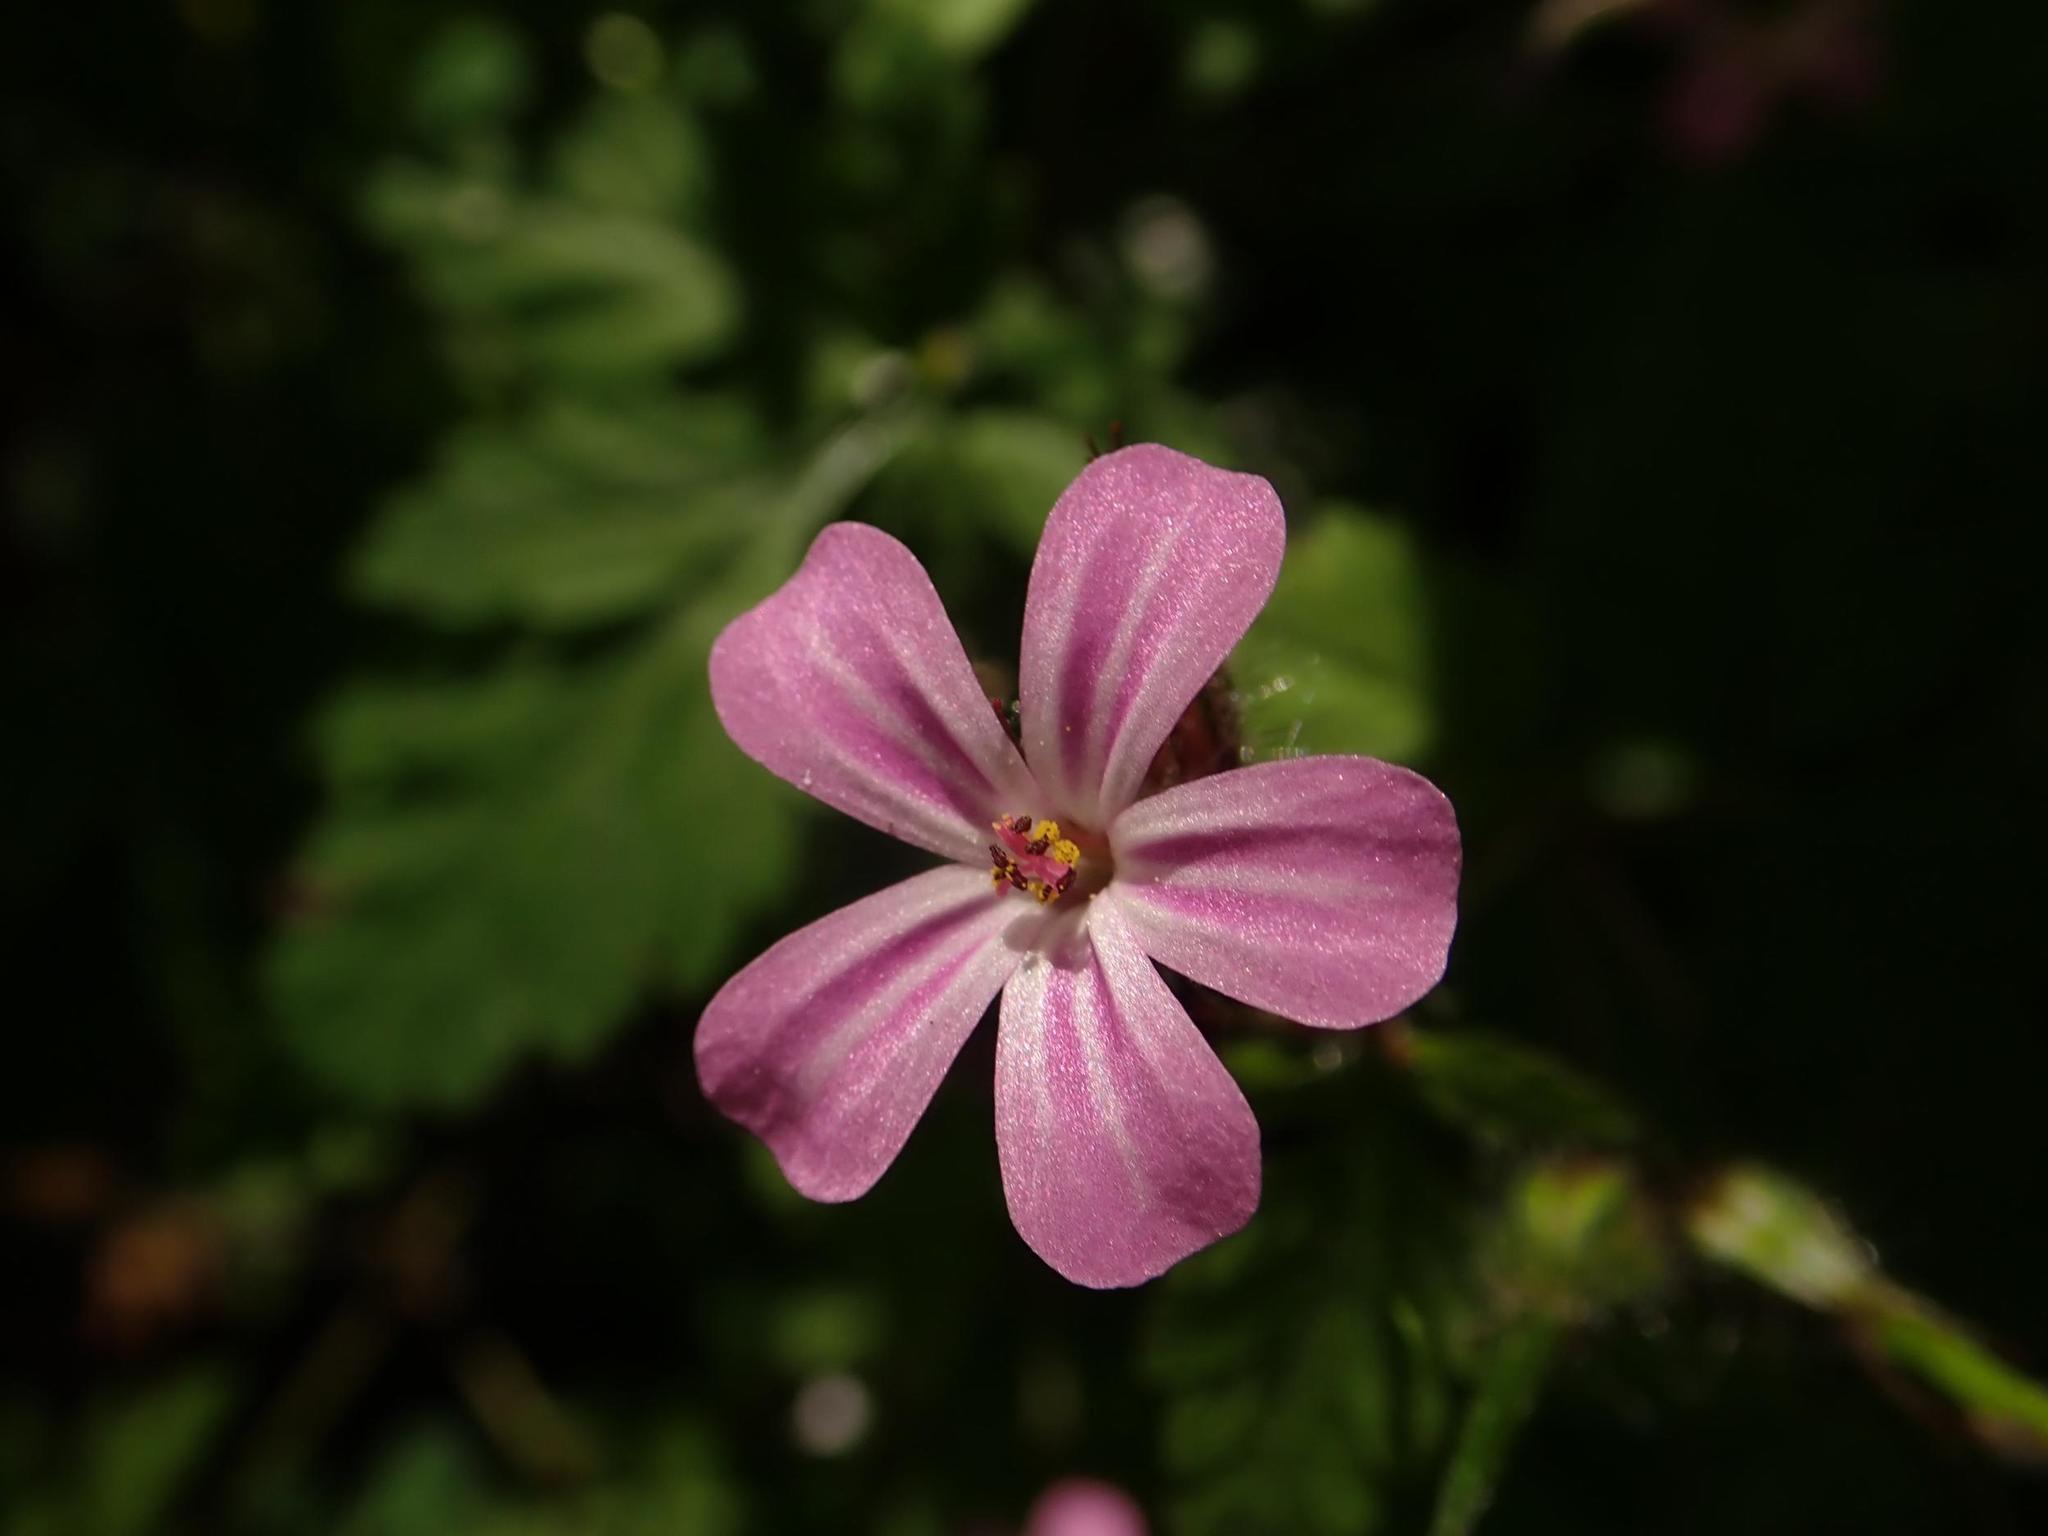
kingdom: Plantae
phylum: Tracheophyta
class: Magnoliopsida
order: Geraniales
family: Geraniaceae
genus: Geranium
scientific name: Geranium robertianum
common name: Herb-robert
